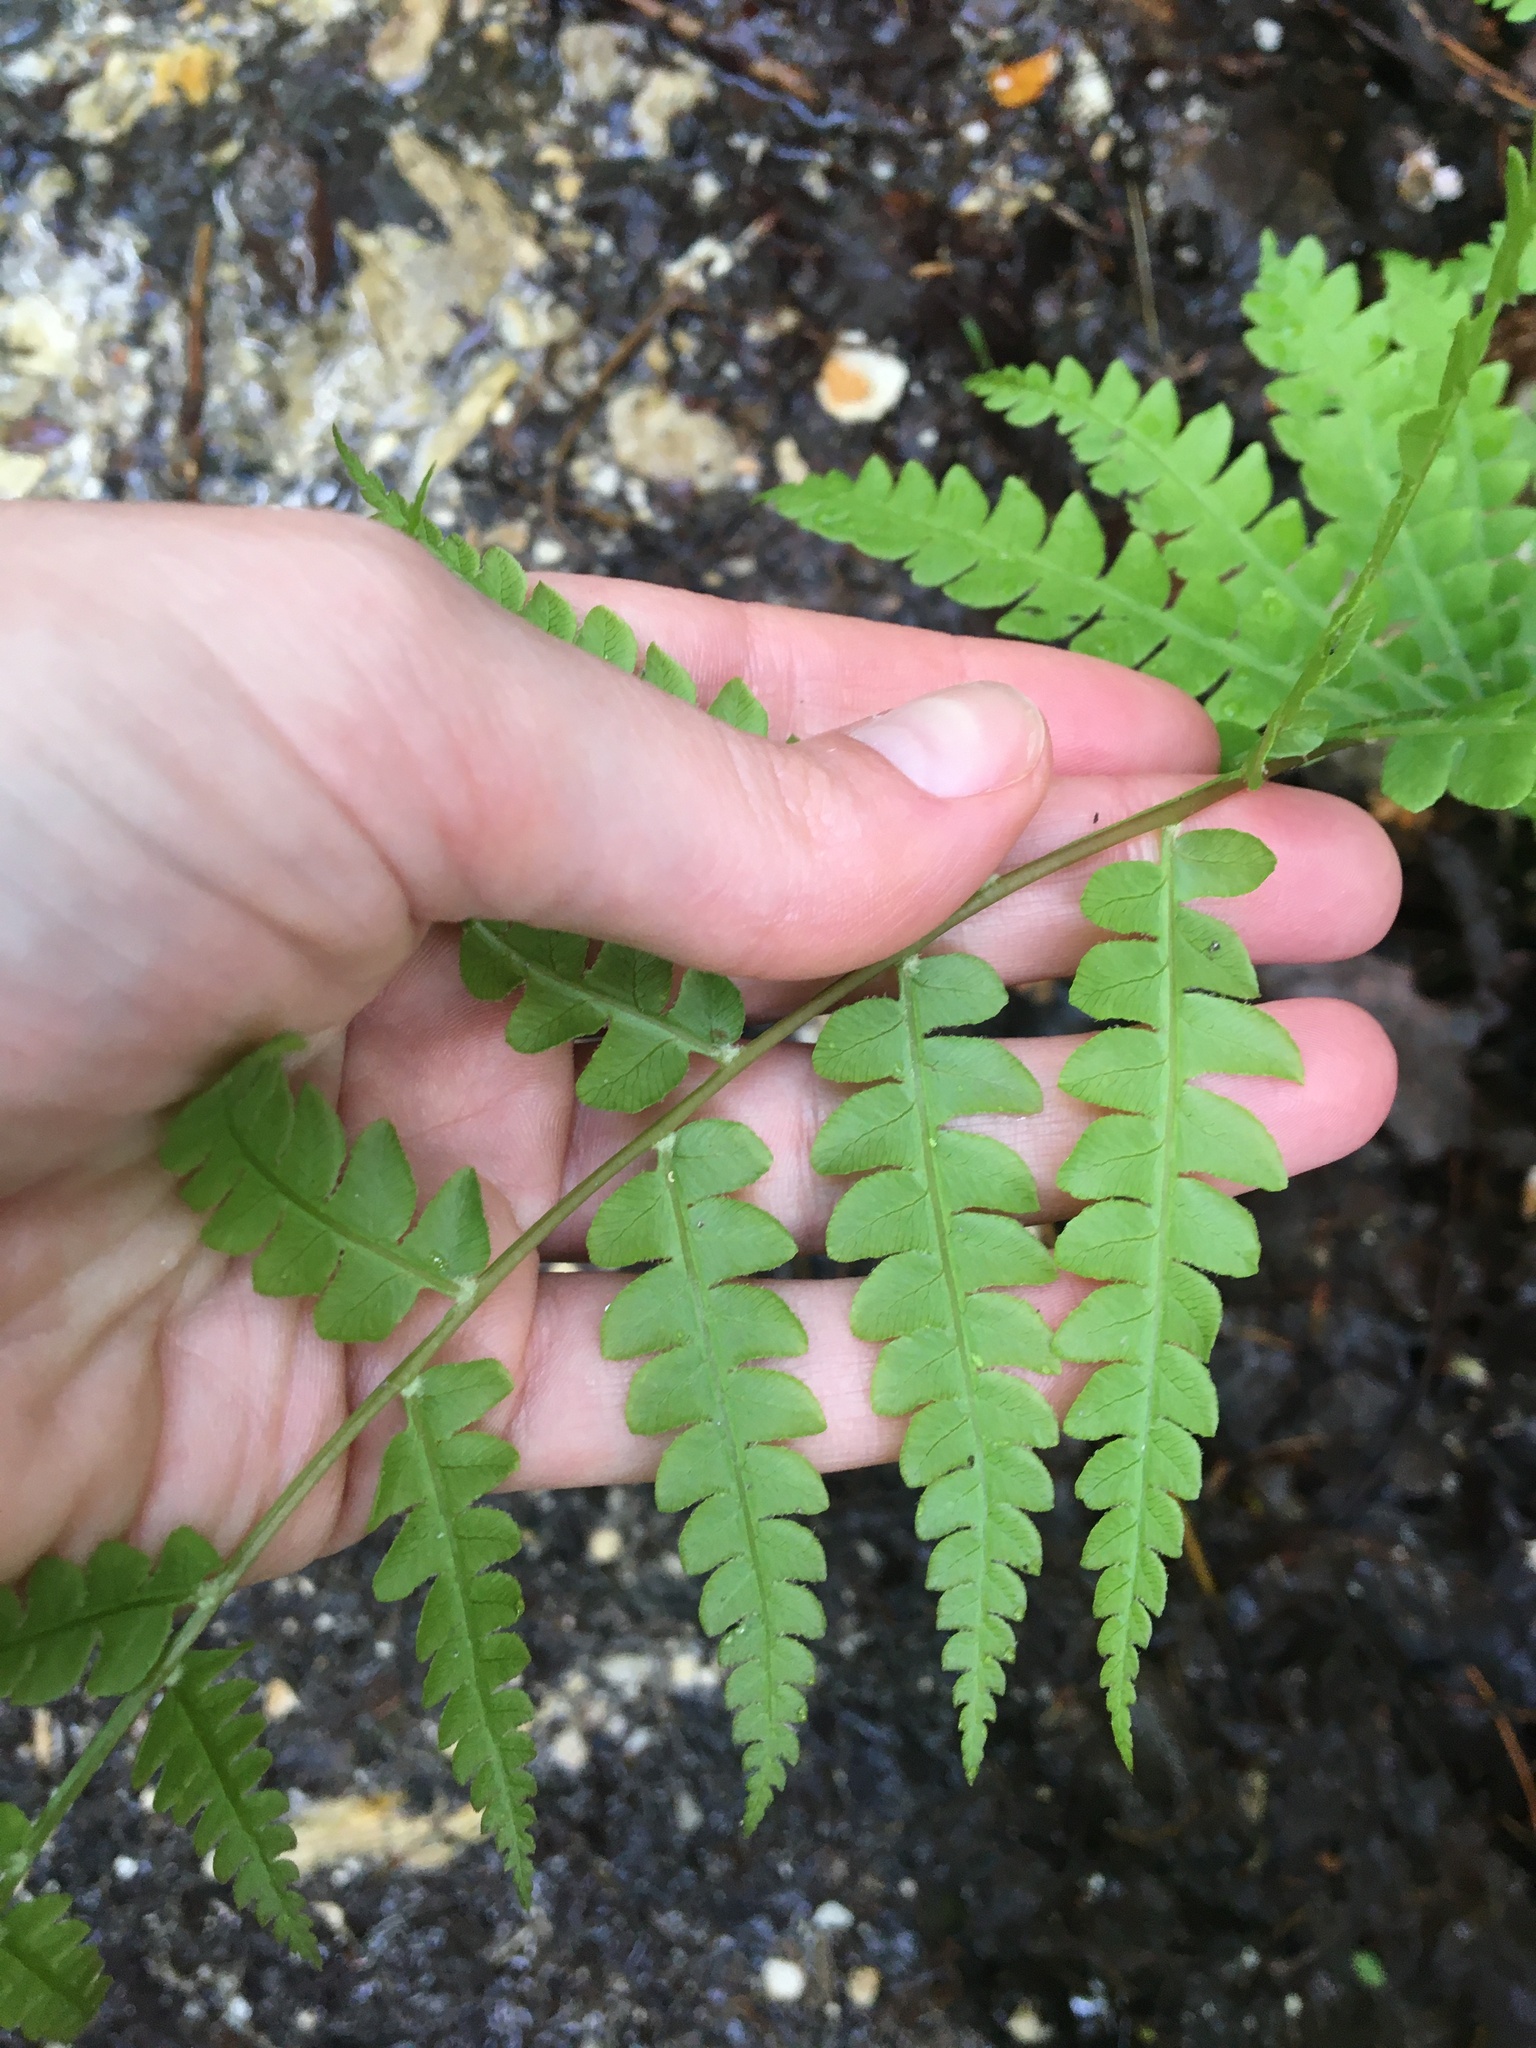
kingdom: Plantae
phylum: Tracheophyta
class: Polypodiopsida
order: Osmundales
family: Osmundaceae
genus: Osmundastrum
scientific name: Osmundastrum cinnamomeum
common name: Cinnamon fern
